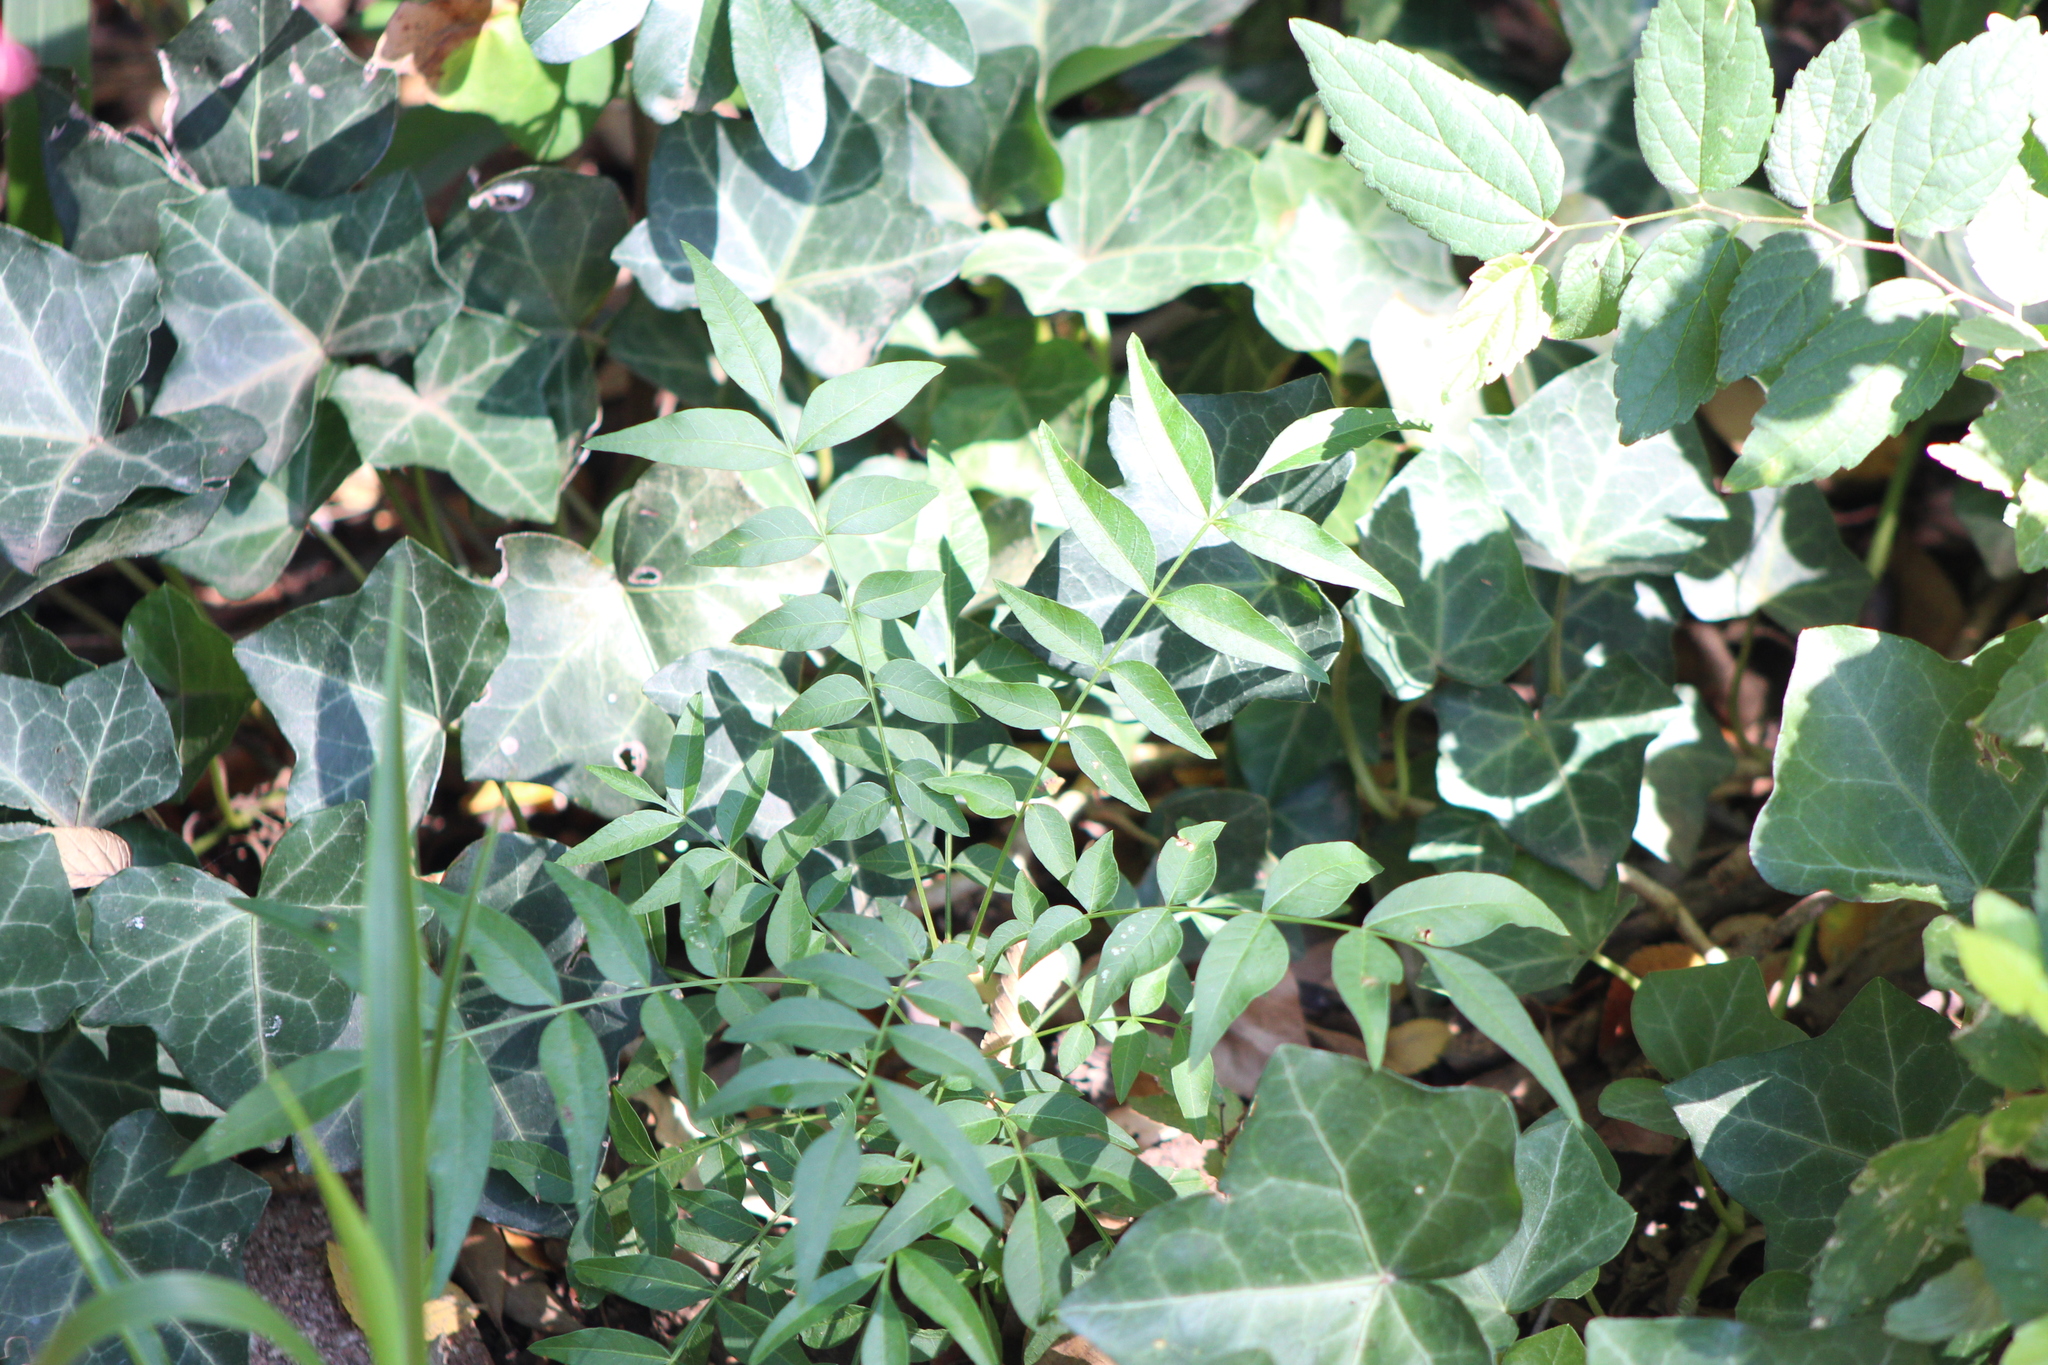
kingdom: Plantae
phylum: Tracheophyta
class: Magnoliopsida
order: Sapindales
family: Sapindaceae
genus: Sapindus
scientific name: Sapindus drummondii
